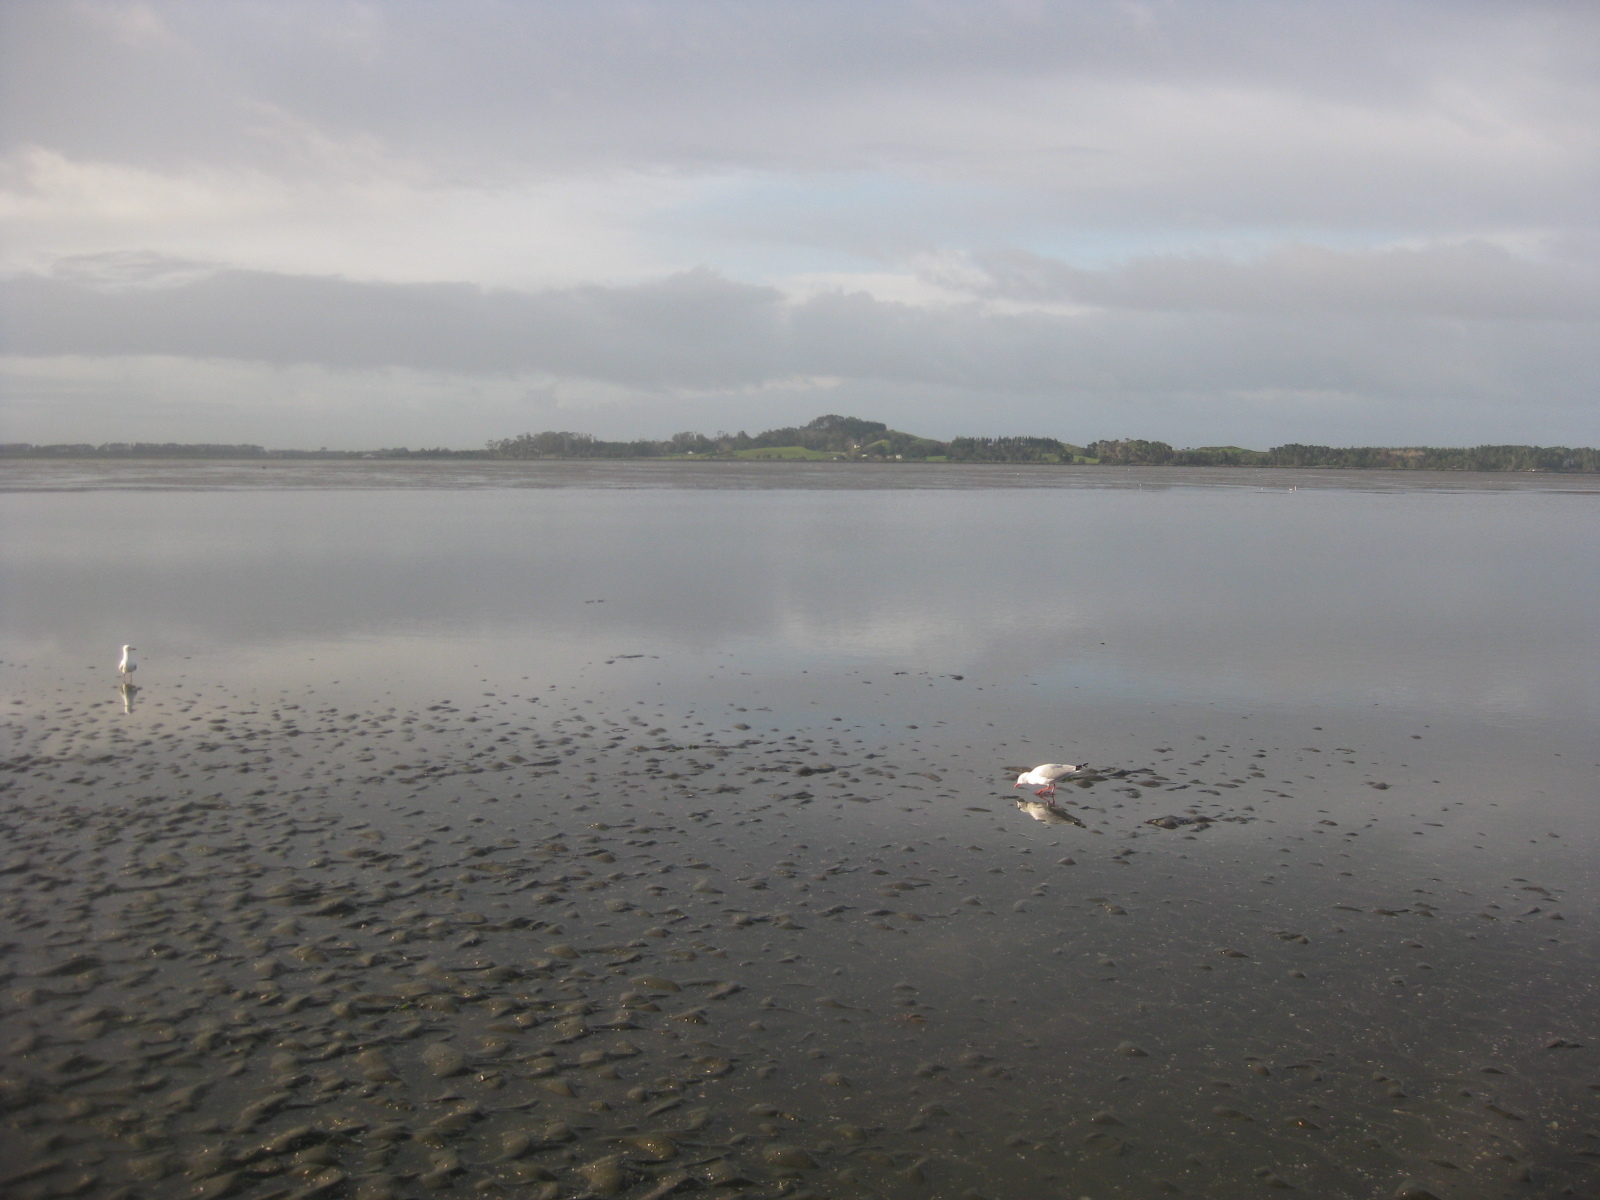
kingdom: Animalia
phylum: Arthropoda
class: Malacostraca
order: Decapoda
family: Macrophthalmidae
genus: Hemiplax
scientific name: Hemiplax hirtipes
